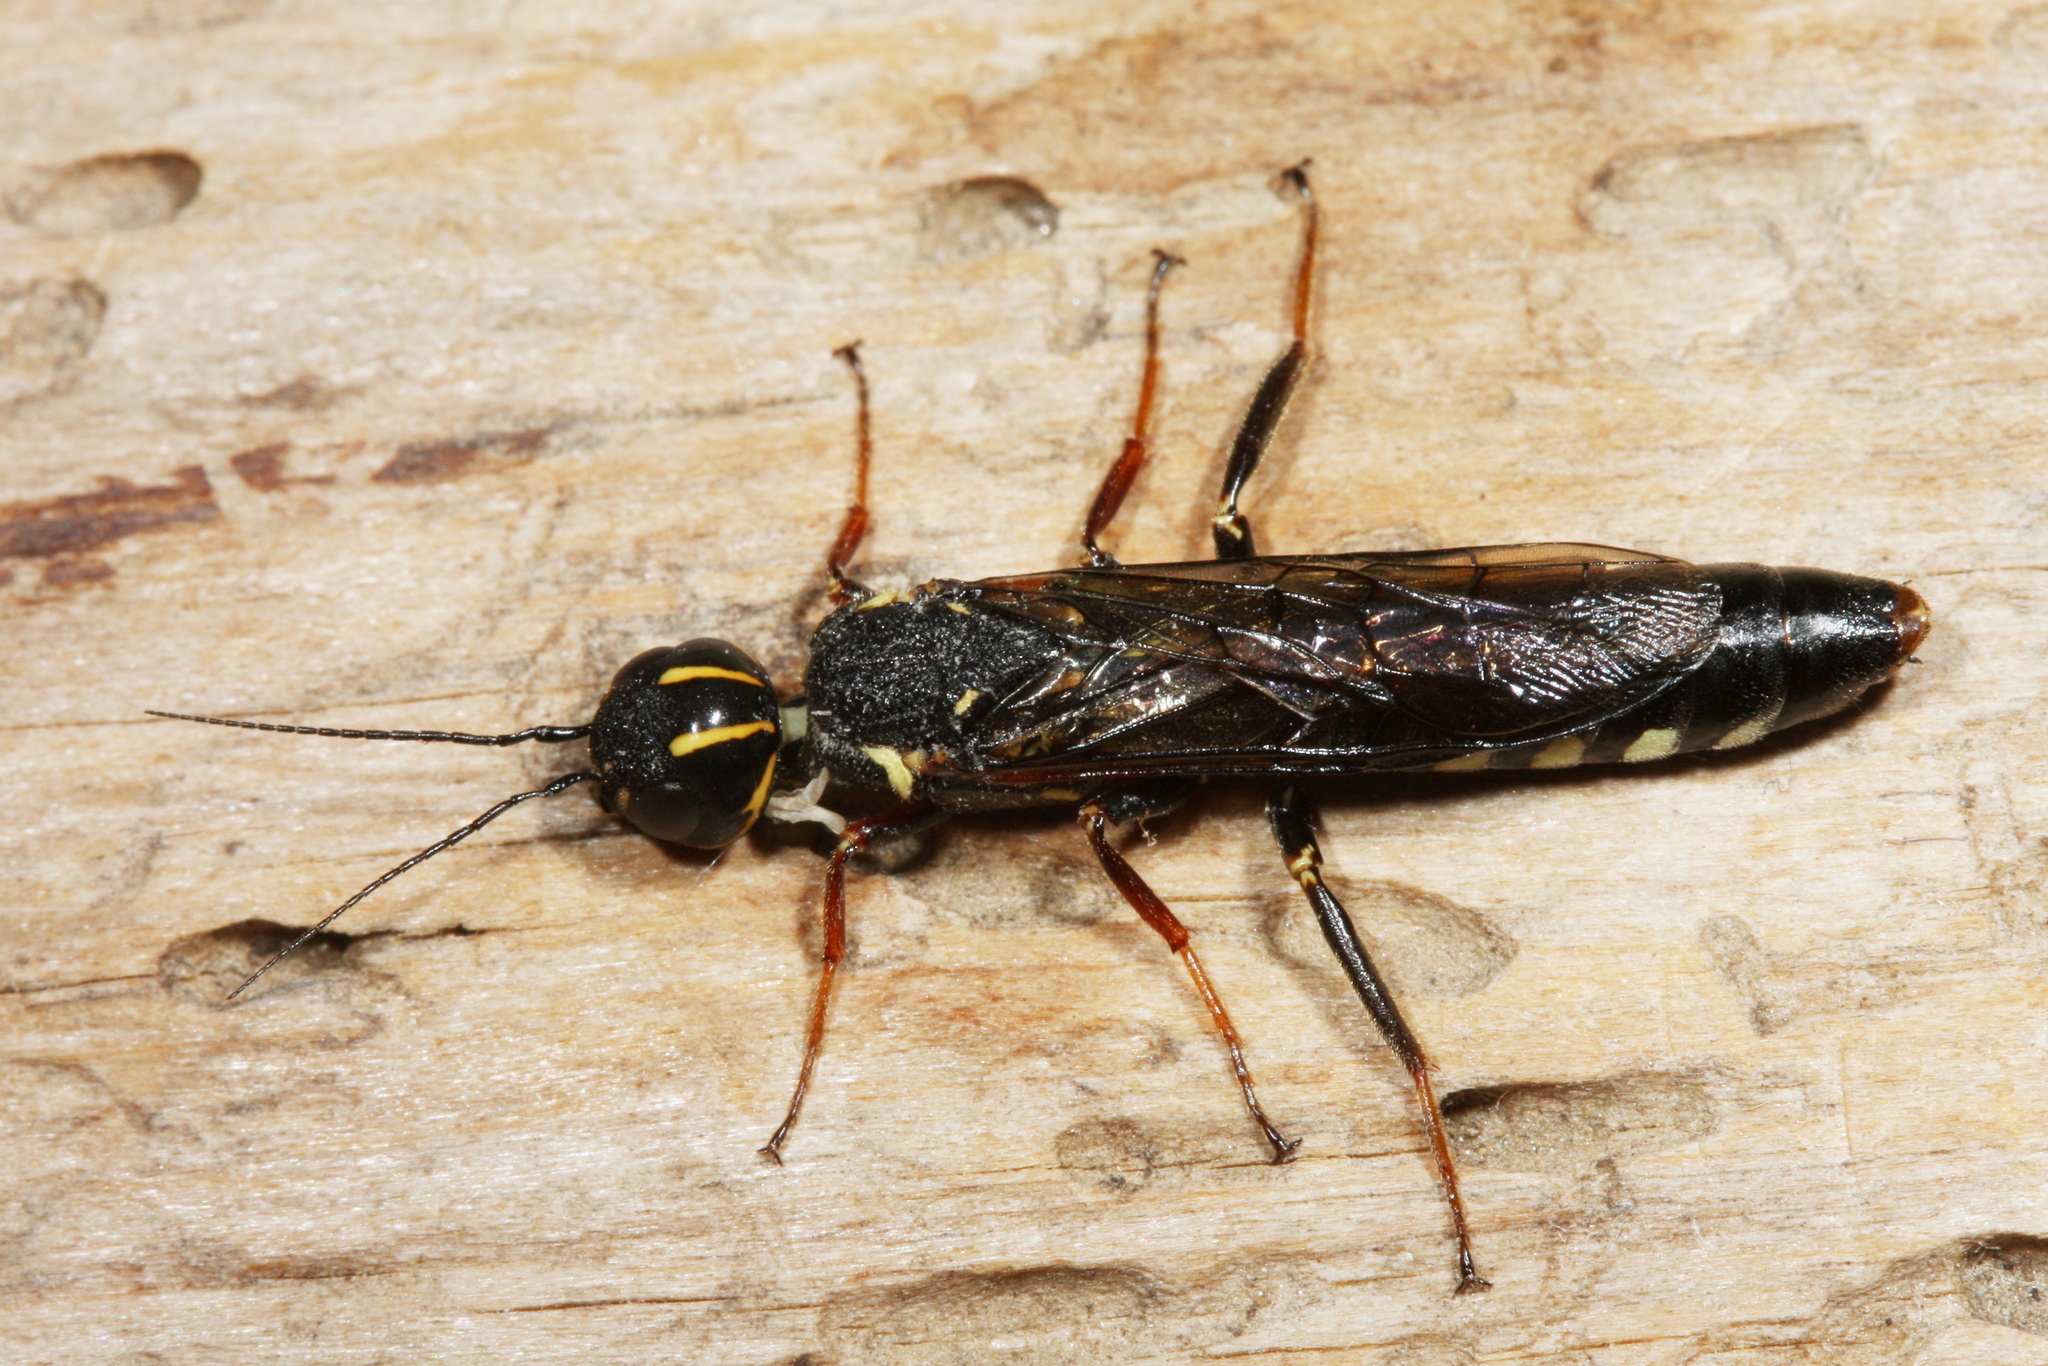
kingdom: Animalia
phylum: Arthropoda
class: Insecta
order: Hymenoptera
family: Xiphydriidae
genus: Xiphydria
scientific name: Xiphydria longicollis
